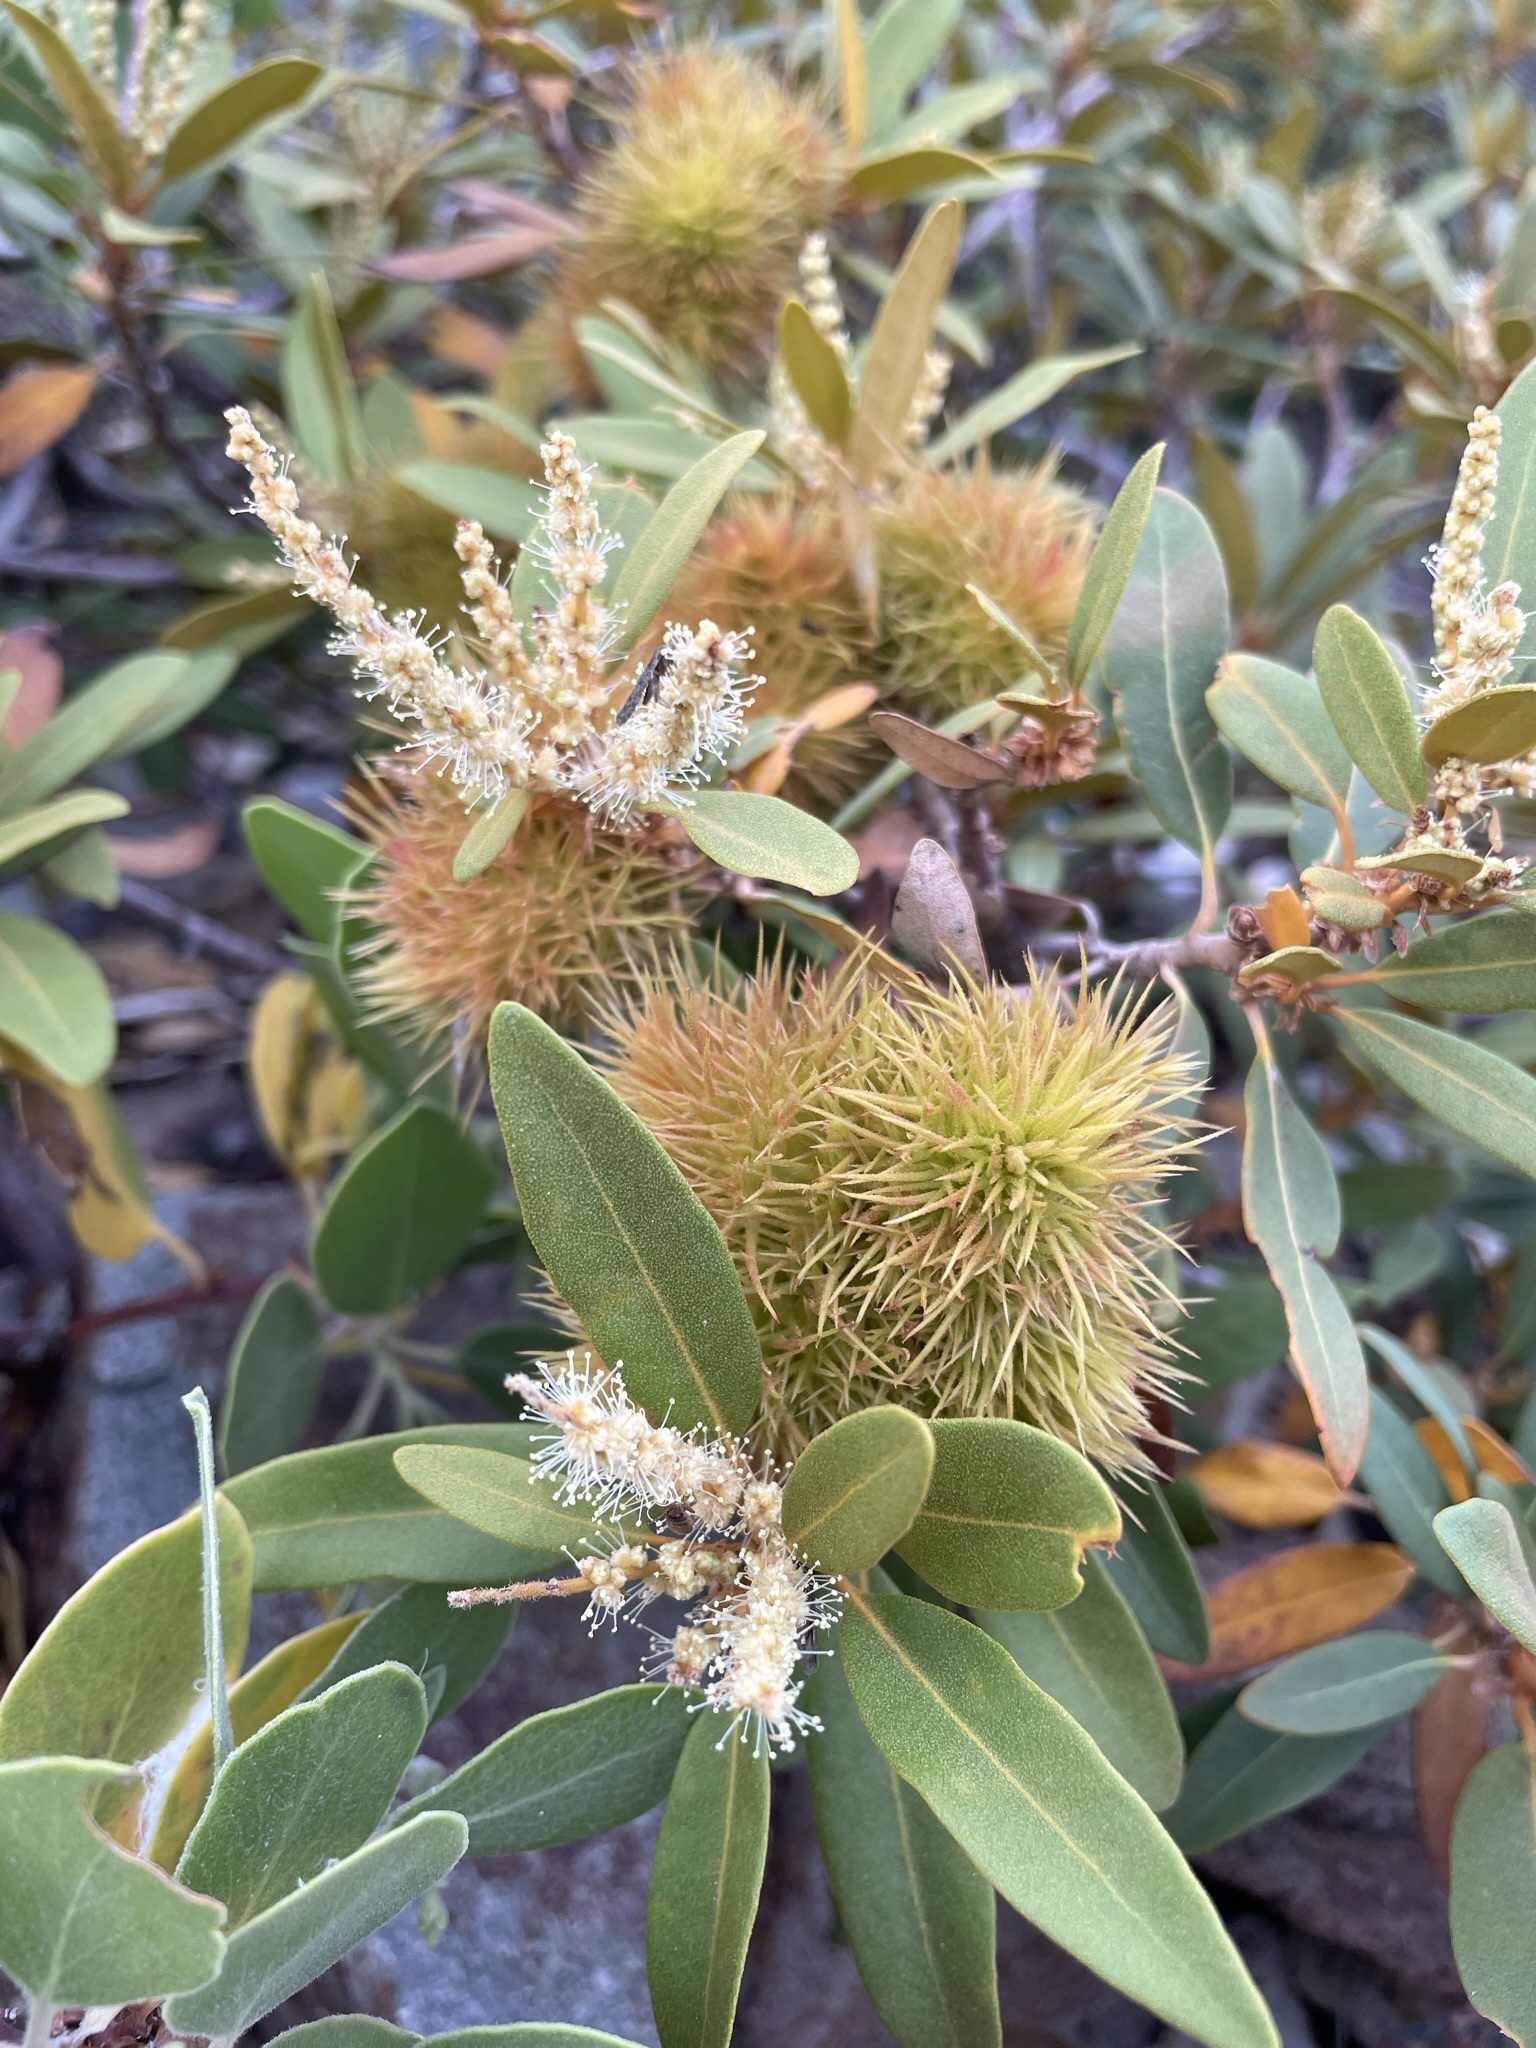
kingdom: Plantae
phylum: Tracheophyta
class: Magnoliopsida
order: Fagales
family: Fagaceae
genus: Chrysolepis
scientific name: Chrysolepis sempervirens
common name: Bush chinquapin
